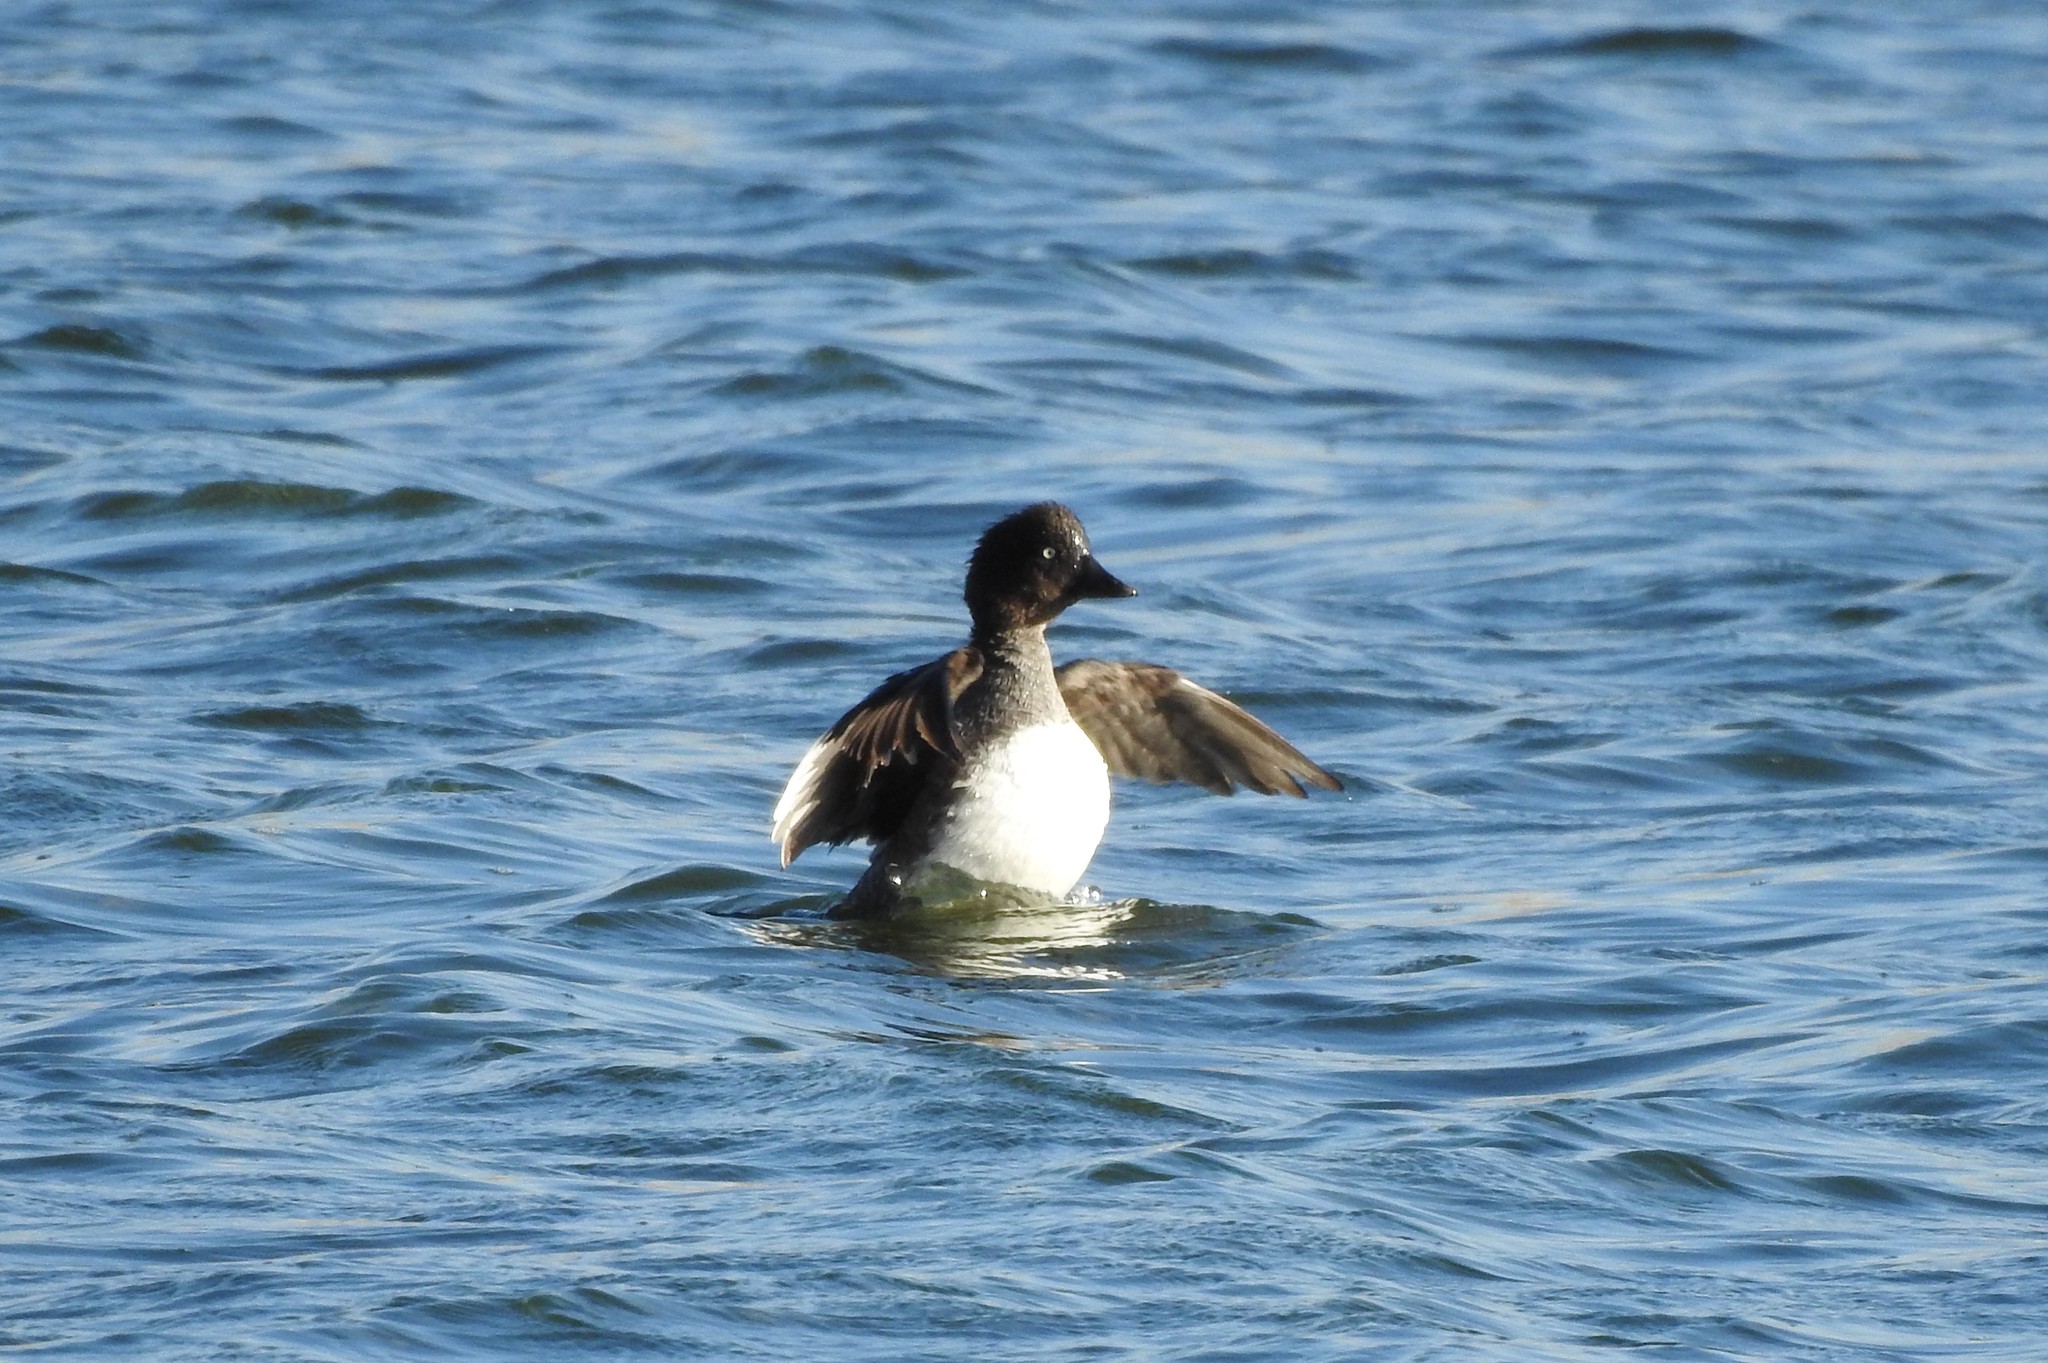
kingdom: Animalia
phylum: Chordata
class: Aves
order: Anseriformes
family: Anatidae
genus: Bucephala
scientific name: Bucephala clangula
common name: Common goldeneye
